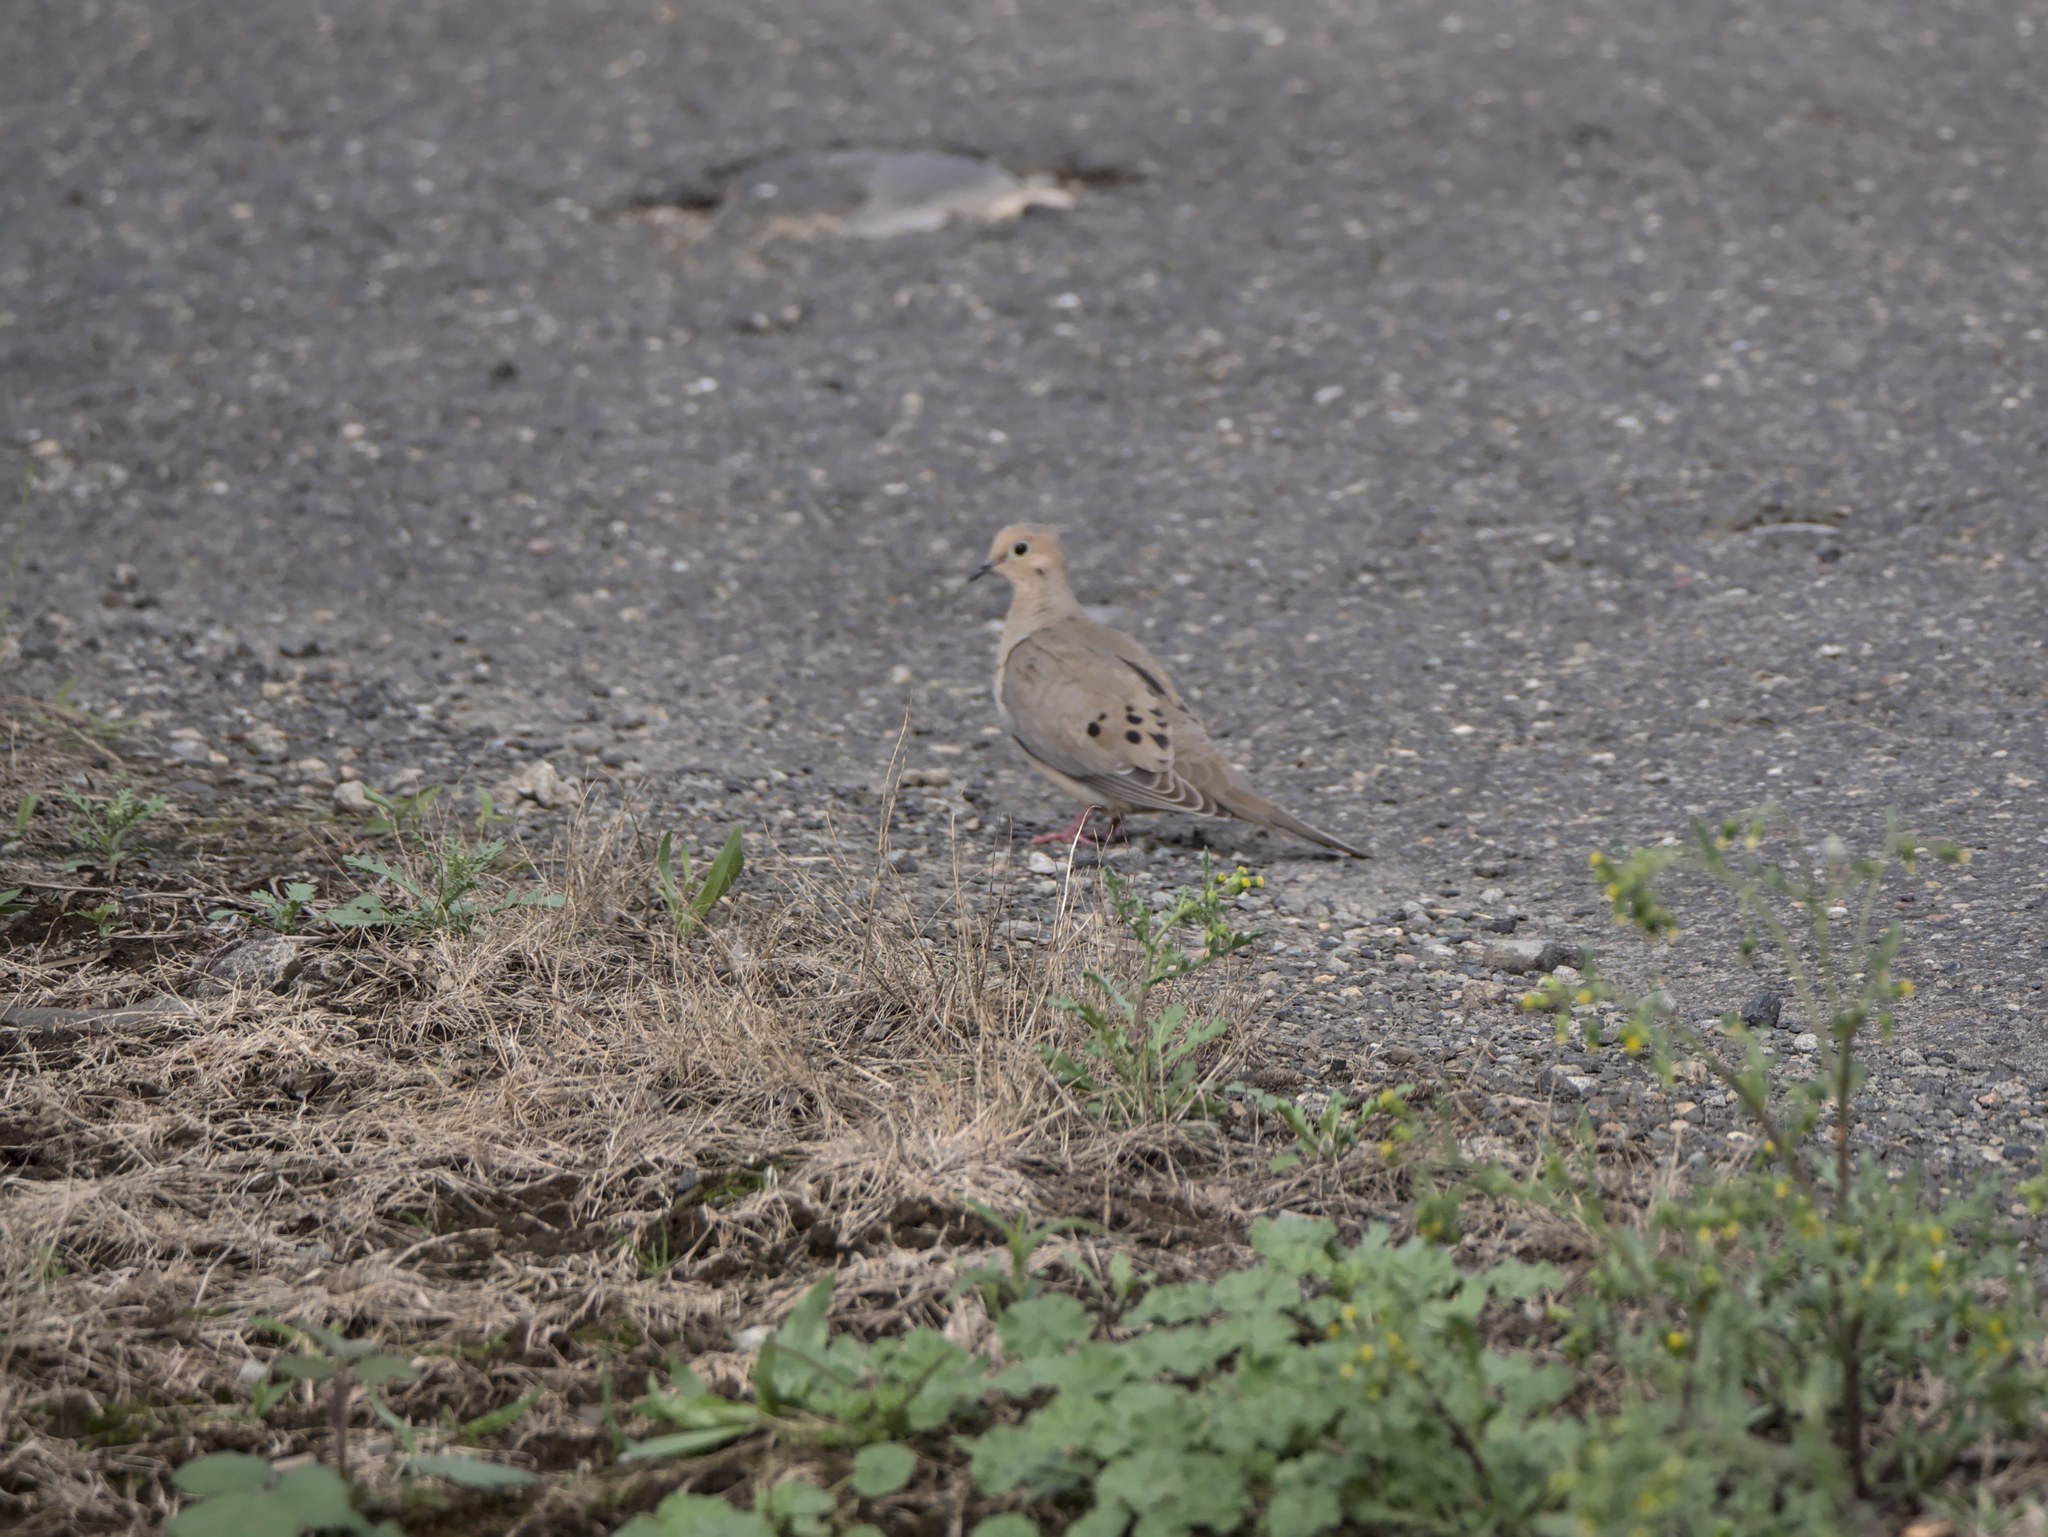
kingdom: Animalia
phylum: Chordata
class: Aves
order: Columbiformes
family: Columbidae
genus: Zenaida
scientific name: Zenaida macroura
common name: Mourning dove
